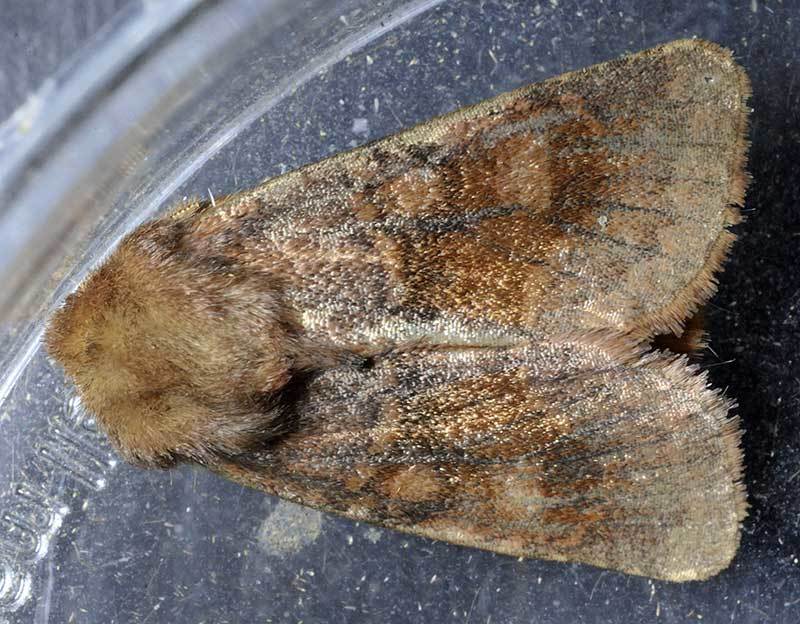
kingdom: Animalia
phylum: Arthropoda
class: Insecta
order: Lepidoptera
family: Noctuidae
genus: Nephelodes
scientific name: Nephelodes minians
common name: Bronzed cutworm
